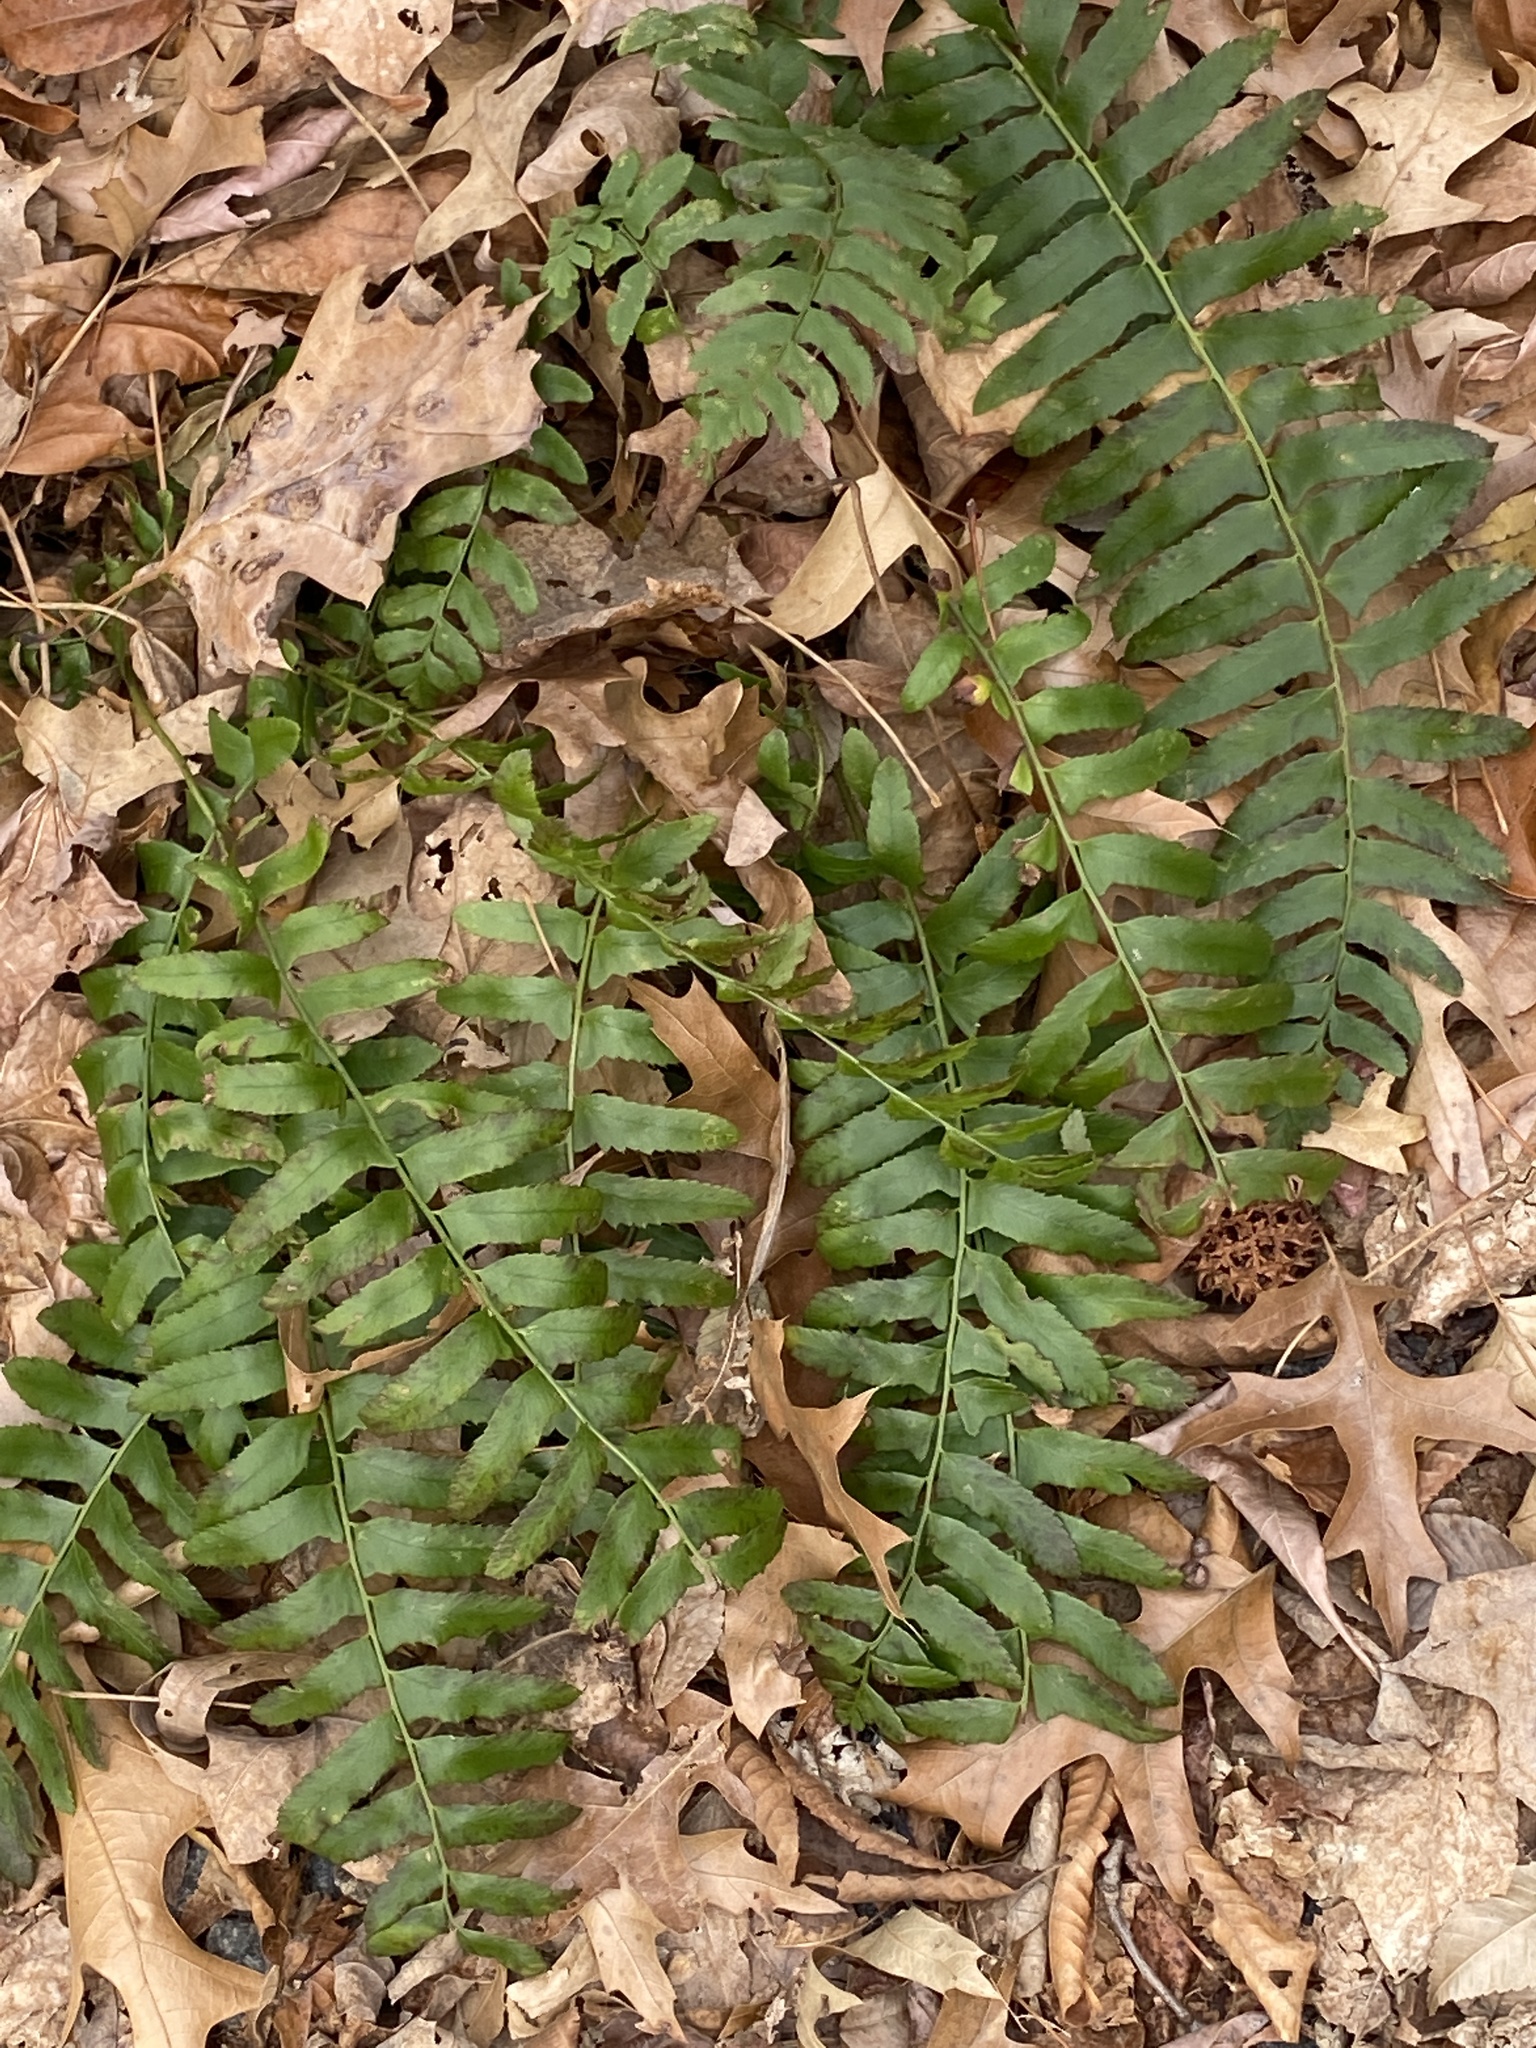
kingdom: Plantae
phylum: Tracheophyta
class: Polypodiopsida
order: Polypodiales
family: Dryopteridaceae
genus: Polystichum
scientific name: Polystichum acrostichoides
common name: Christmas fern
